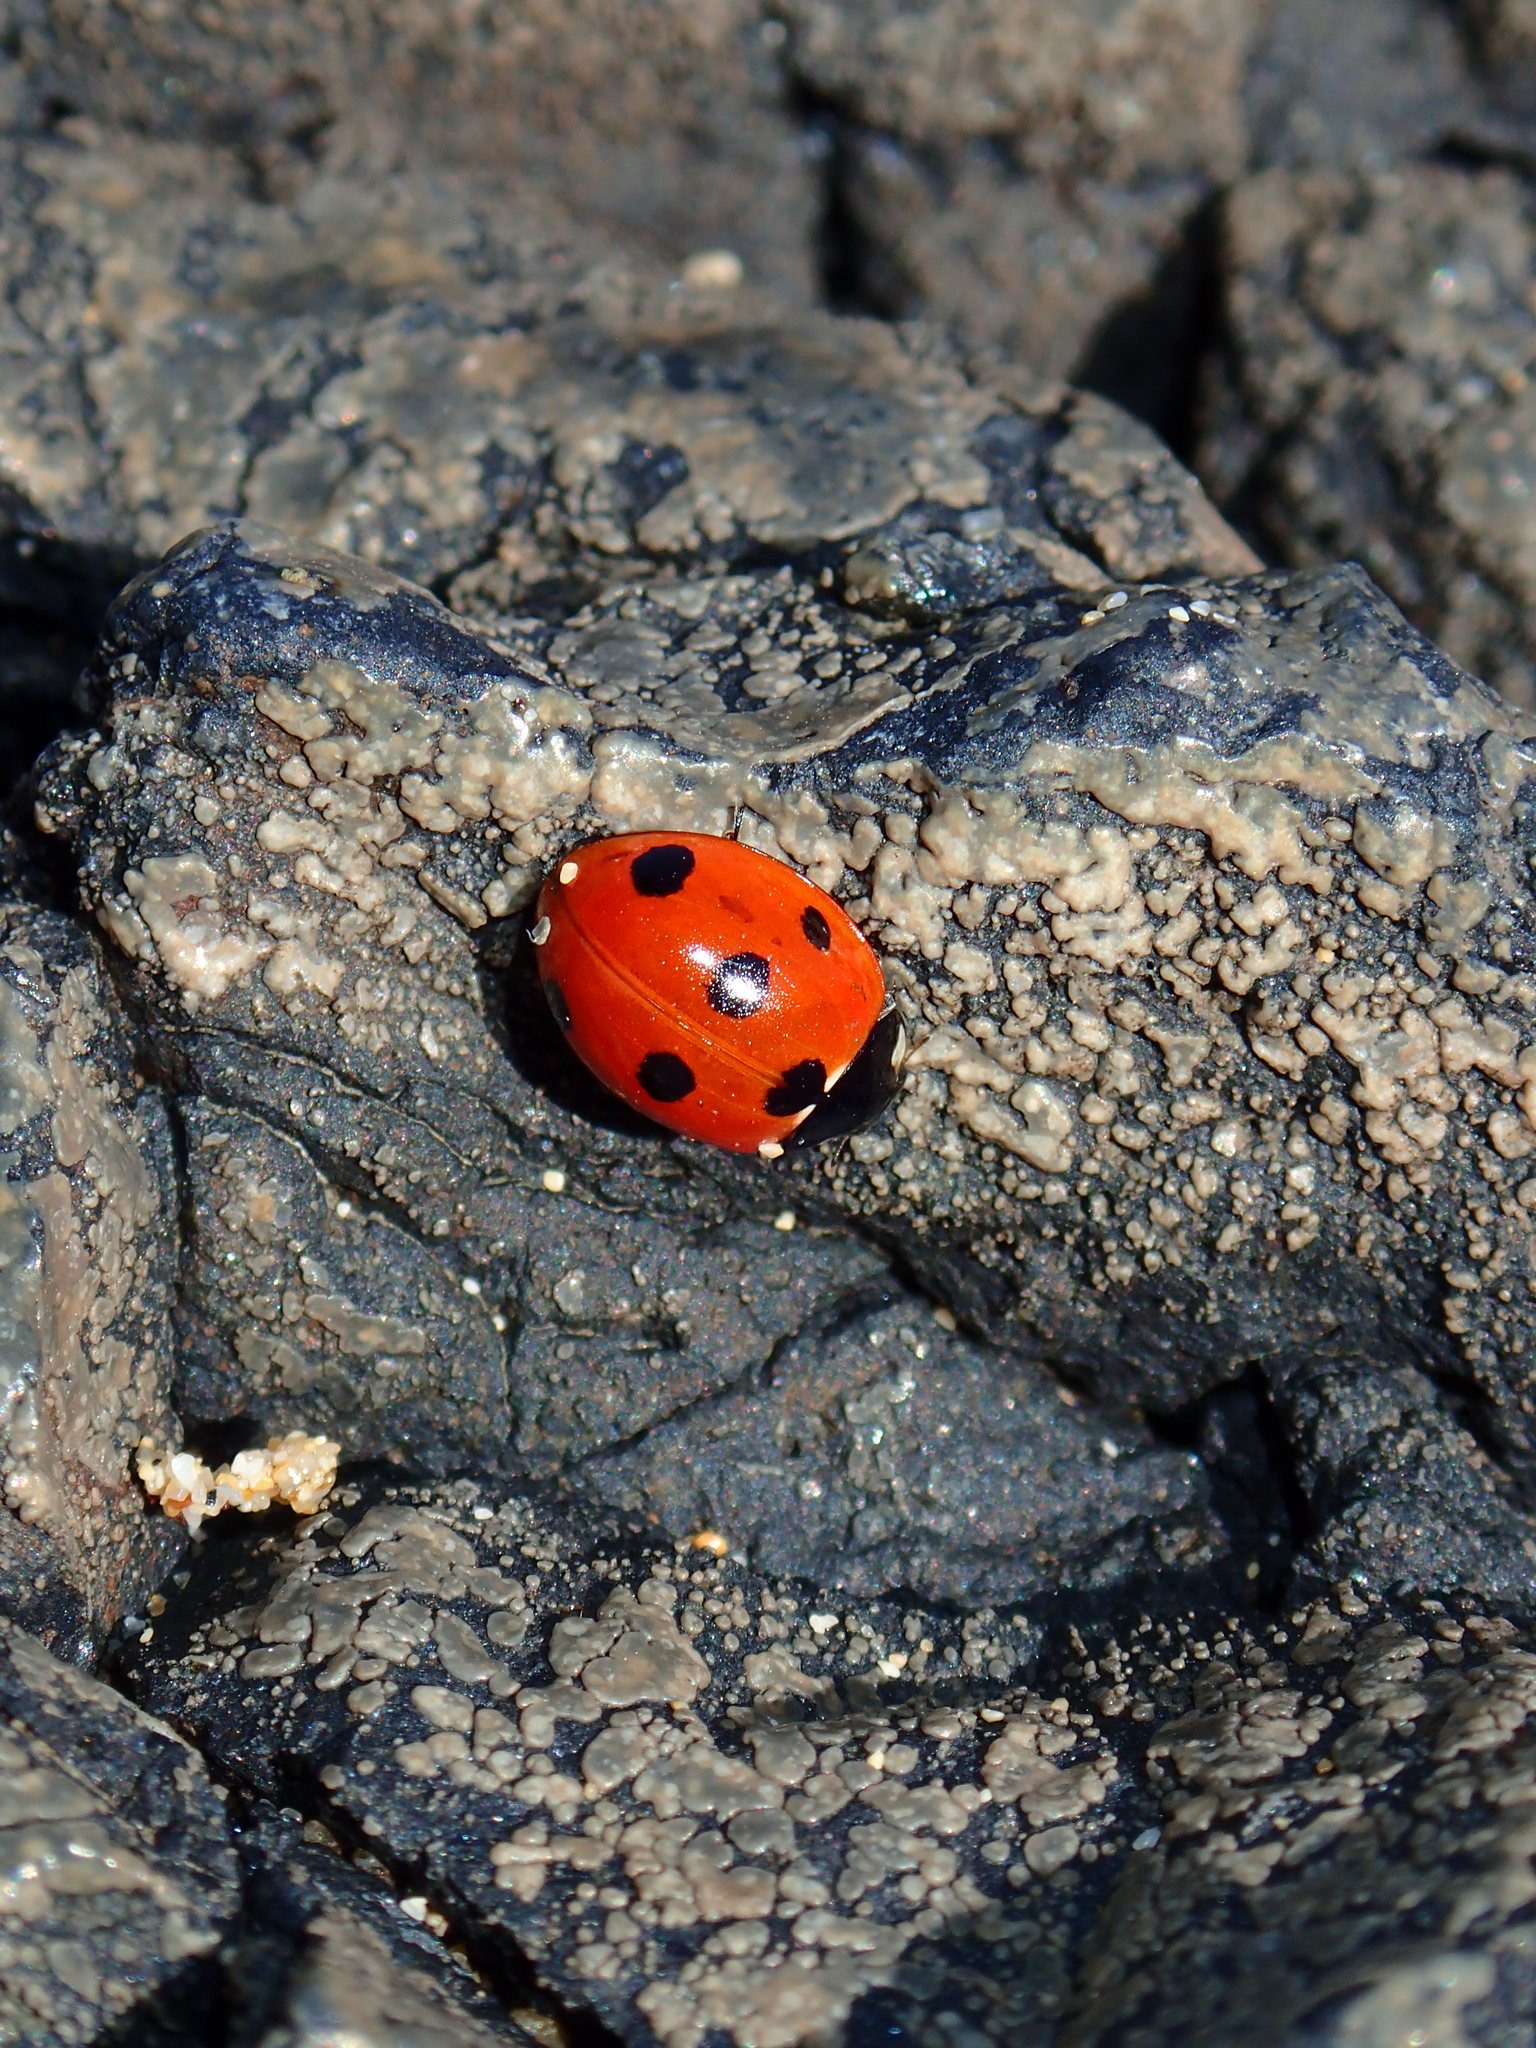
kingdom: Animalia
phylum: Arthropoda
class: Insecta
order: Coleoptera
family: Coccinellidae
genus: Coccinella
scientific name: Coccinella algerica
